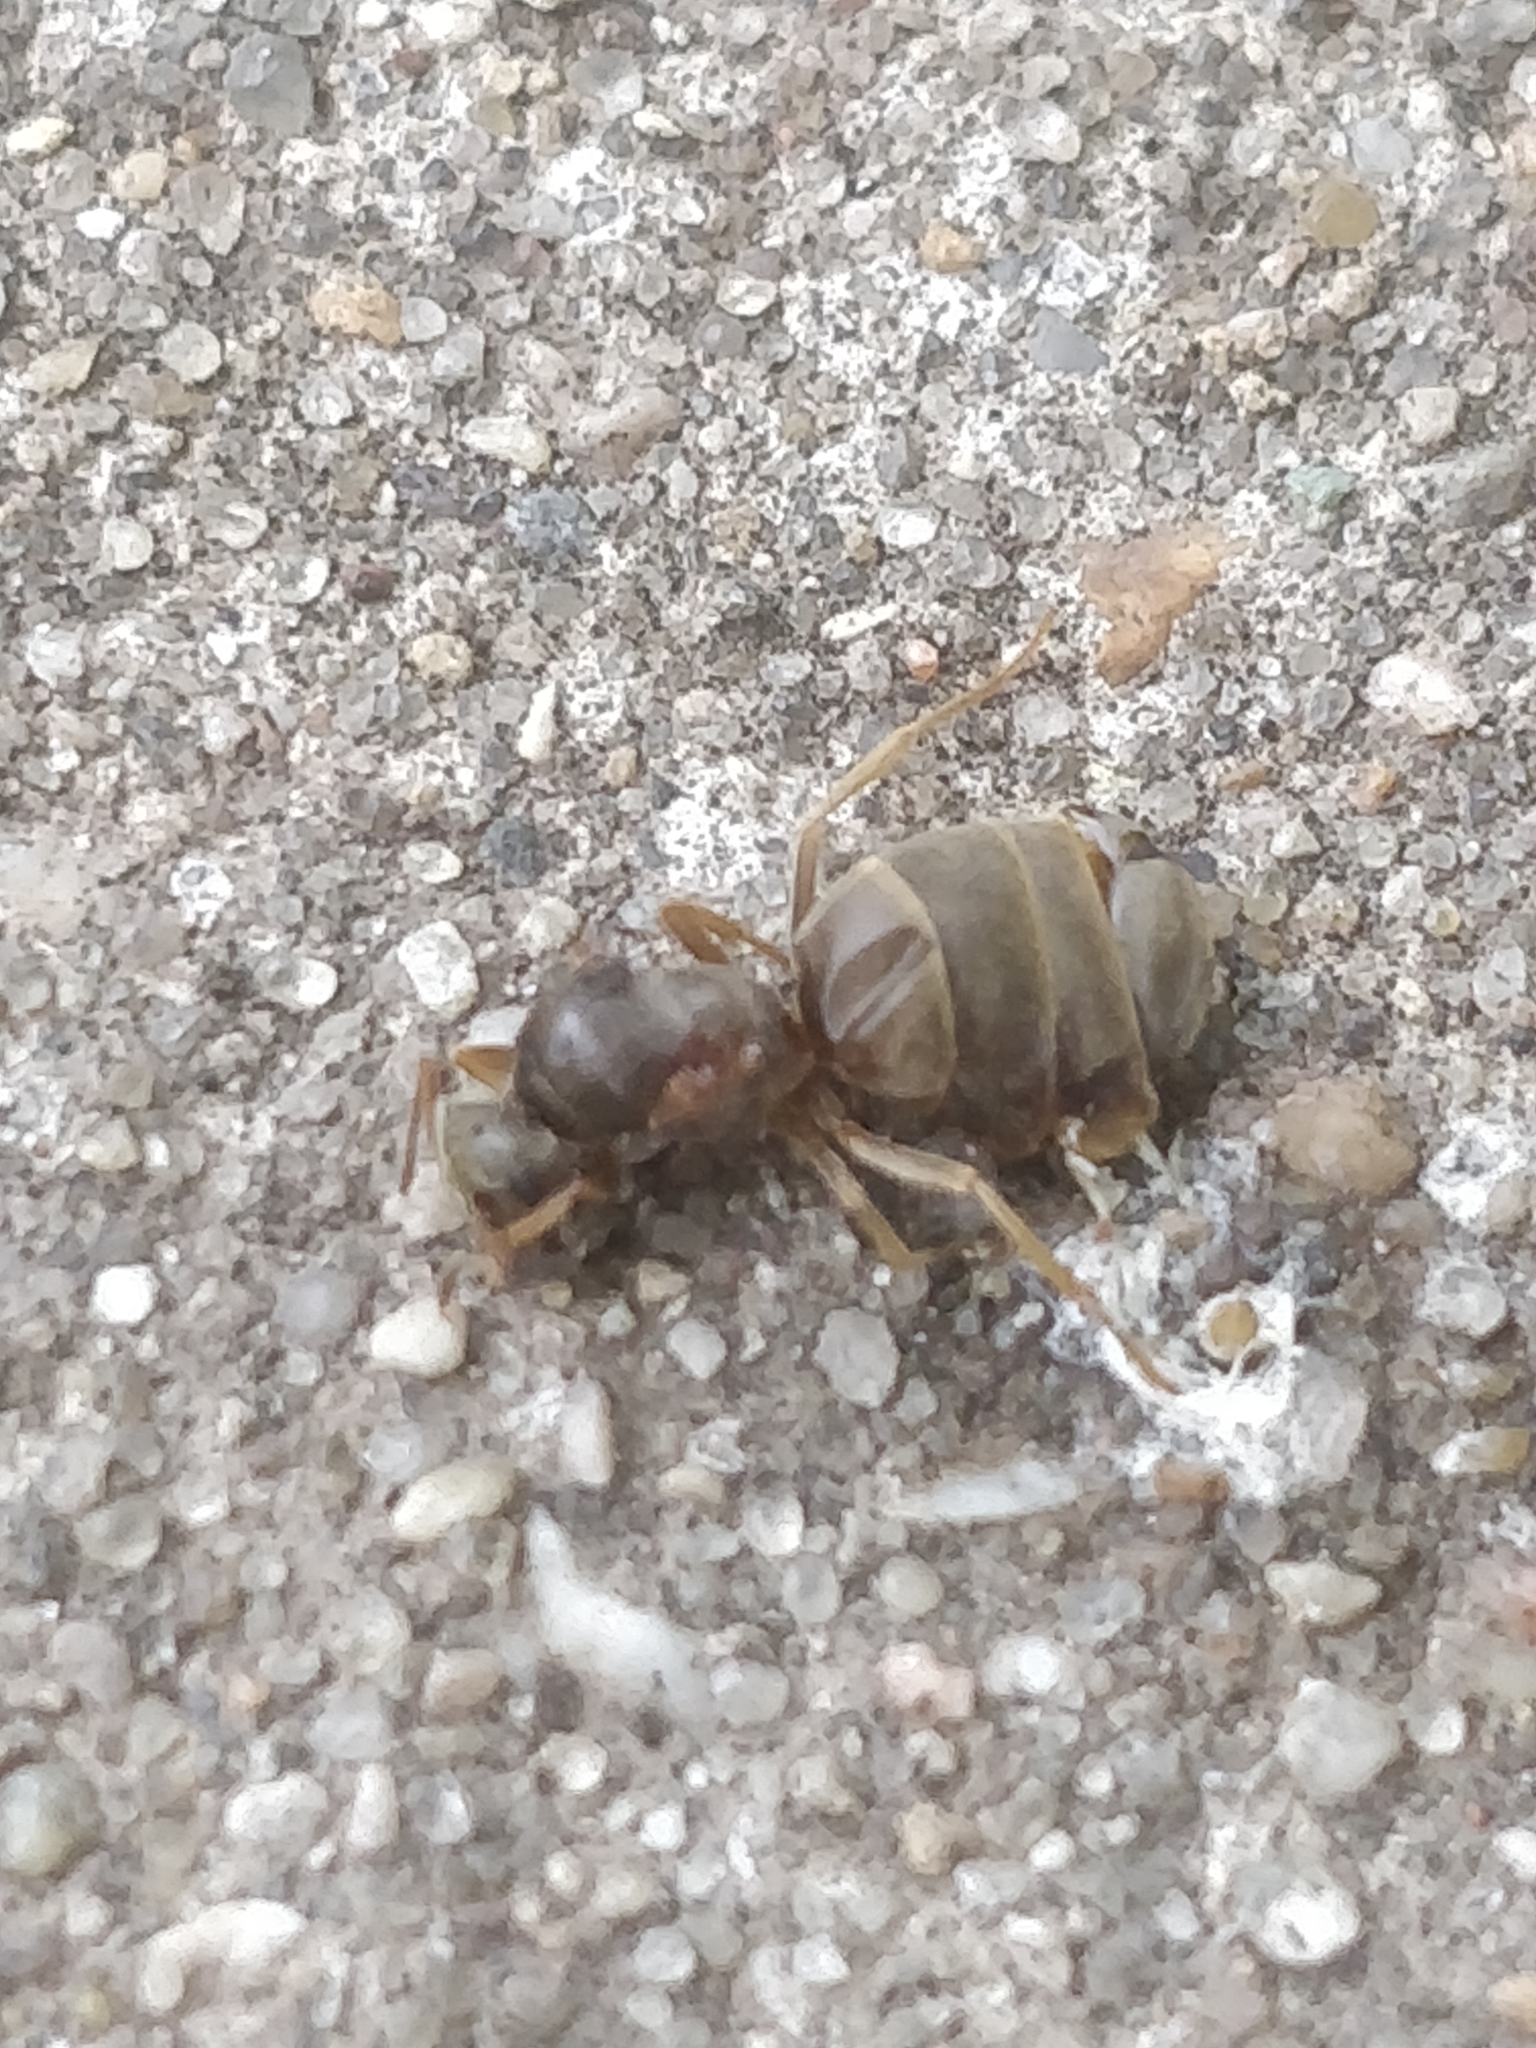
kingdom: Animalia
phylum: Arthropoda
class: Insecta
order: Hymenoptera
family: Formicidae
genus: Lasius
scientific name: Lasius neoniger
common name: Turfgrass ant
